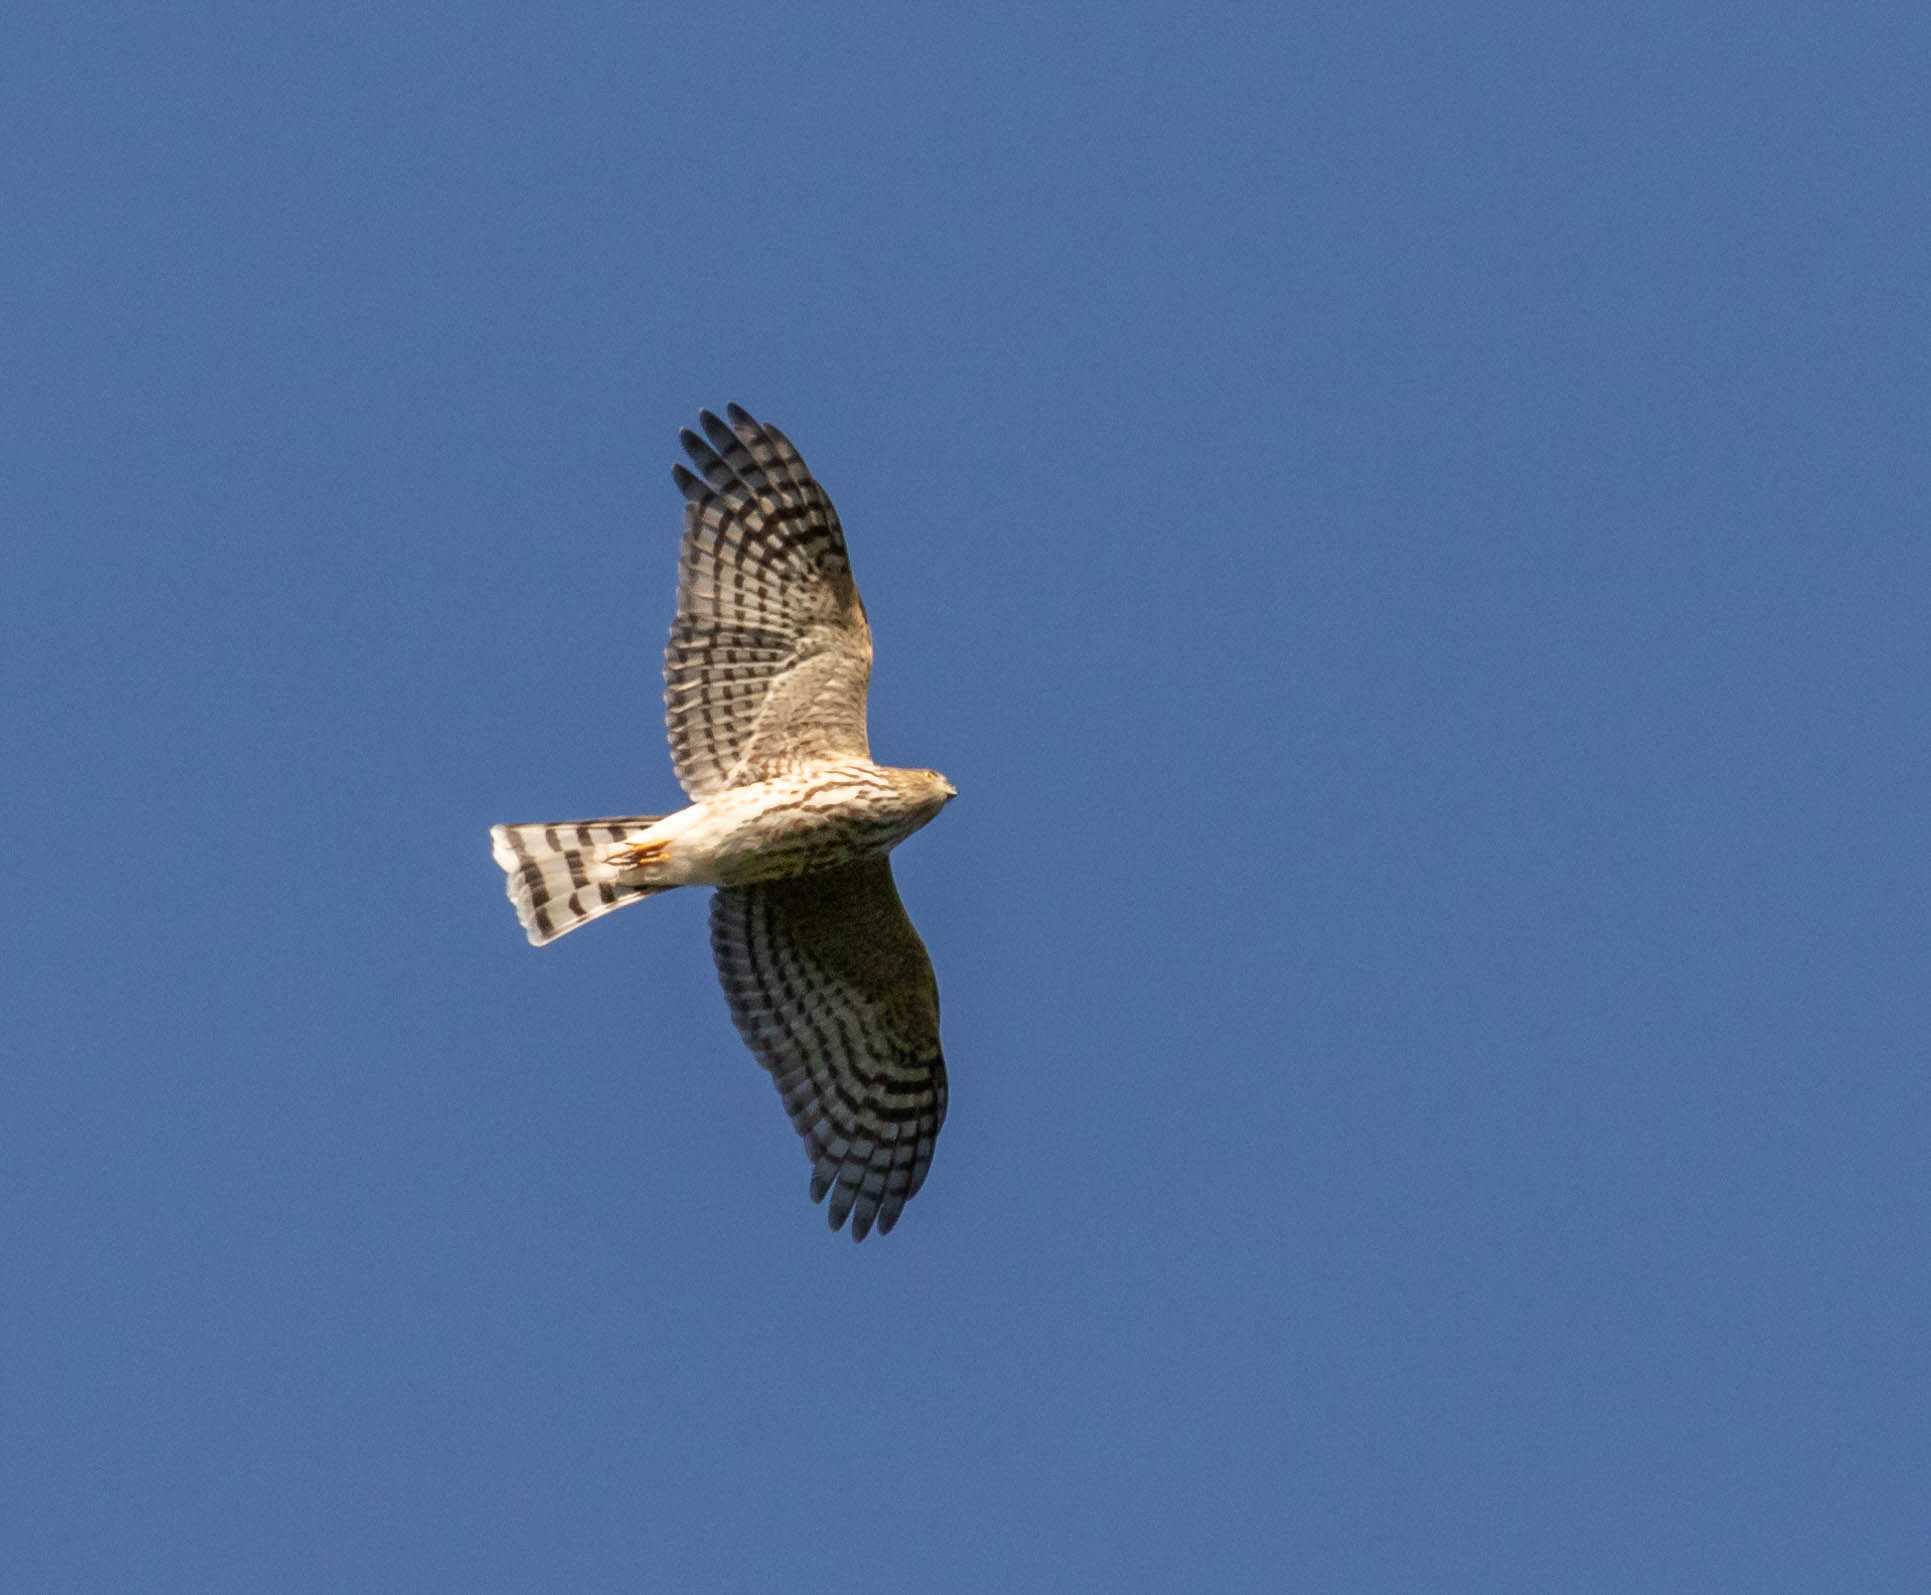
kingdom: Animalia
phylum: Chordata
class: Aves
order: Accipitriformes
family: Accipitridae
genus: Accipiter
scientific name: Accipiter striatus
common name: Sharp-shinned hawk
